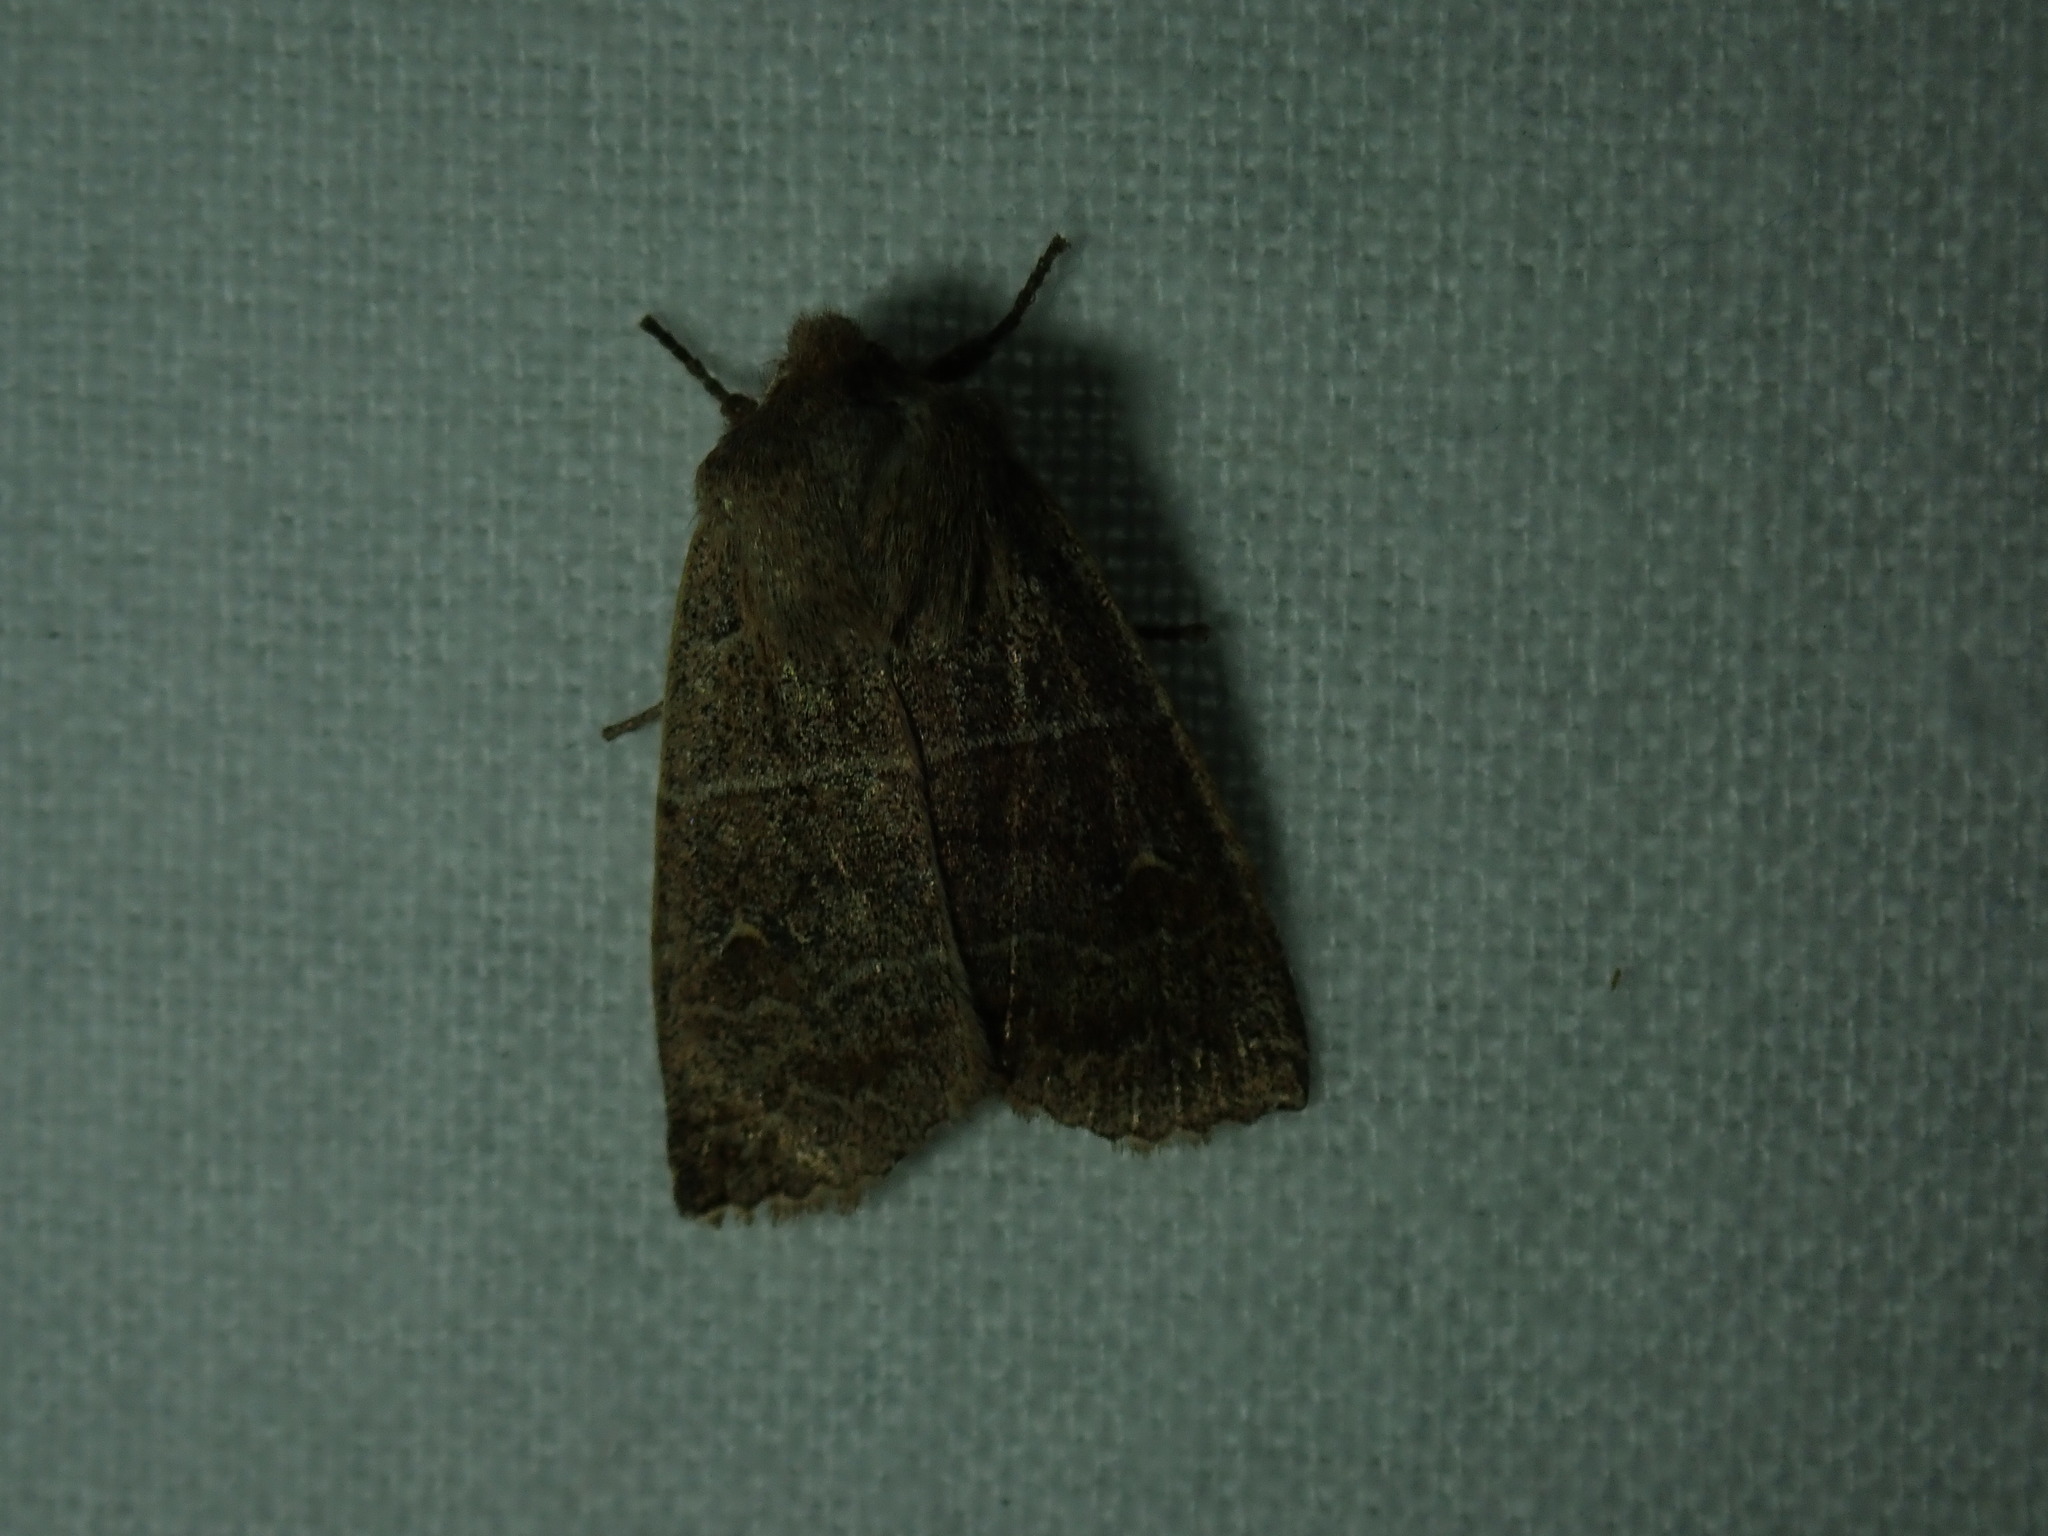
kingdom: Animalia
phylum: Arthropoda
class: Insecta
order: Lepidoptera
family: Noctuidae
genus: Eupsilia
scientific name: Eupsilia morrisoni
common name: Morrison's sallow
